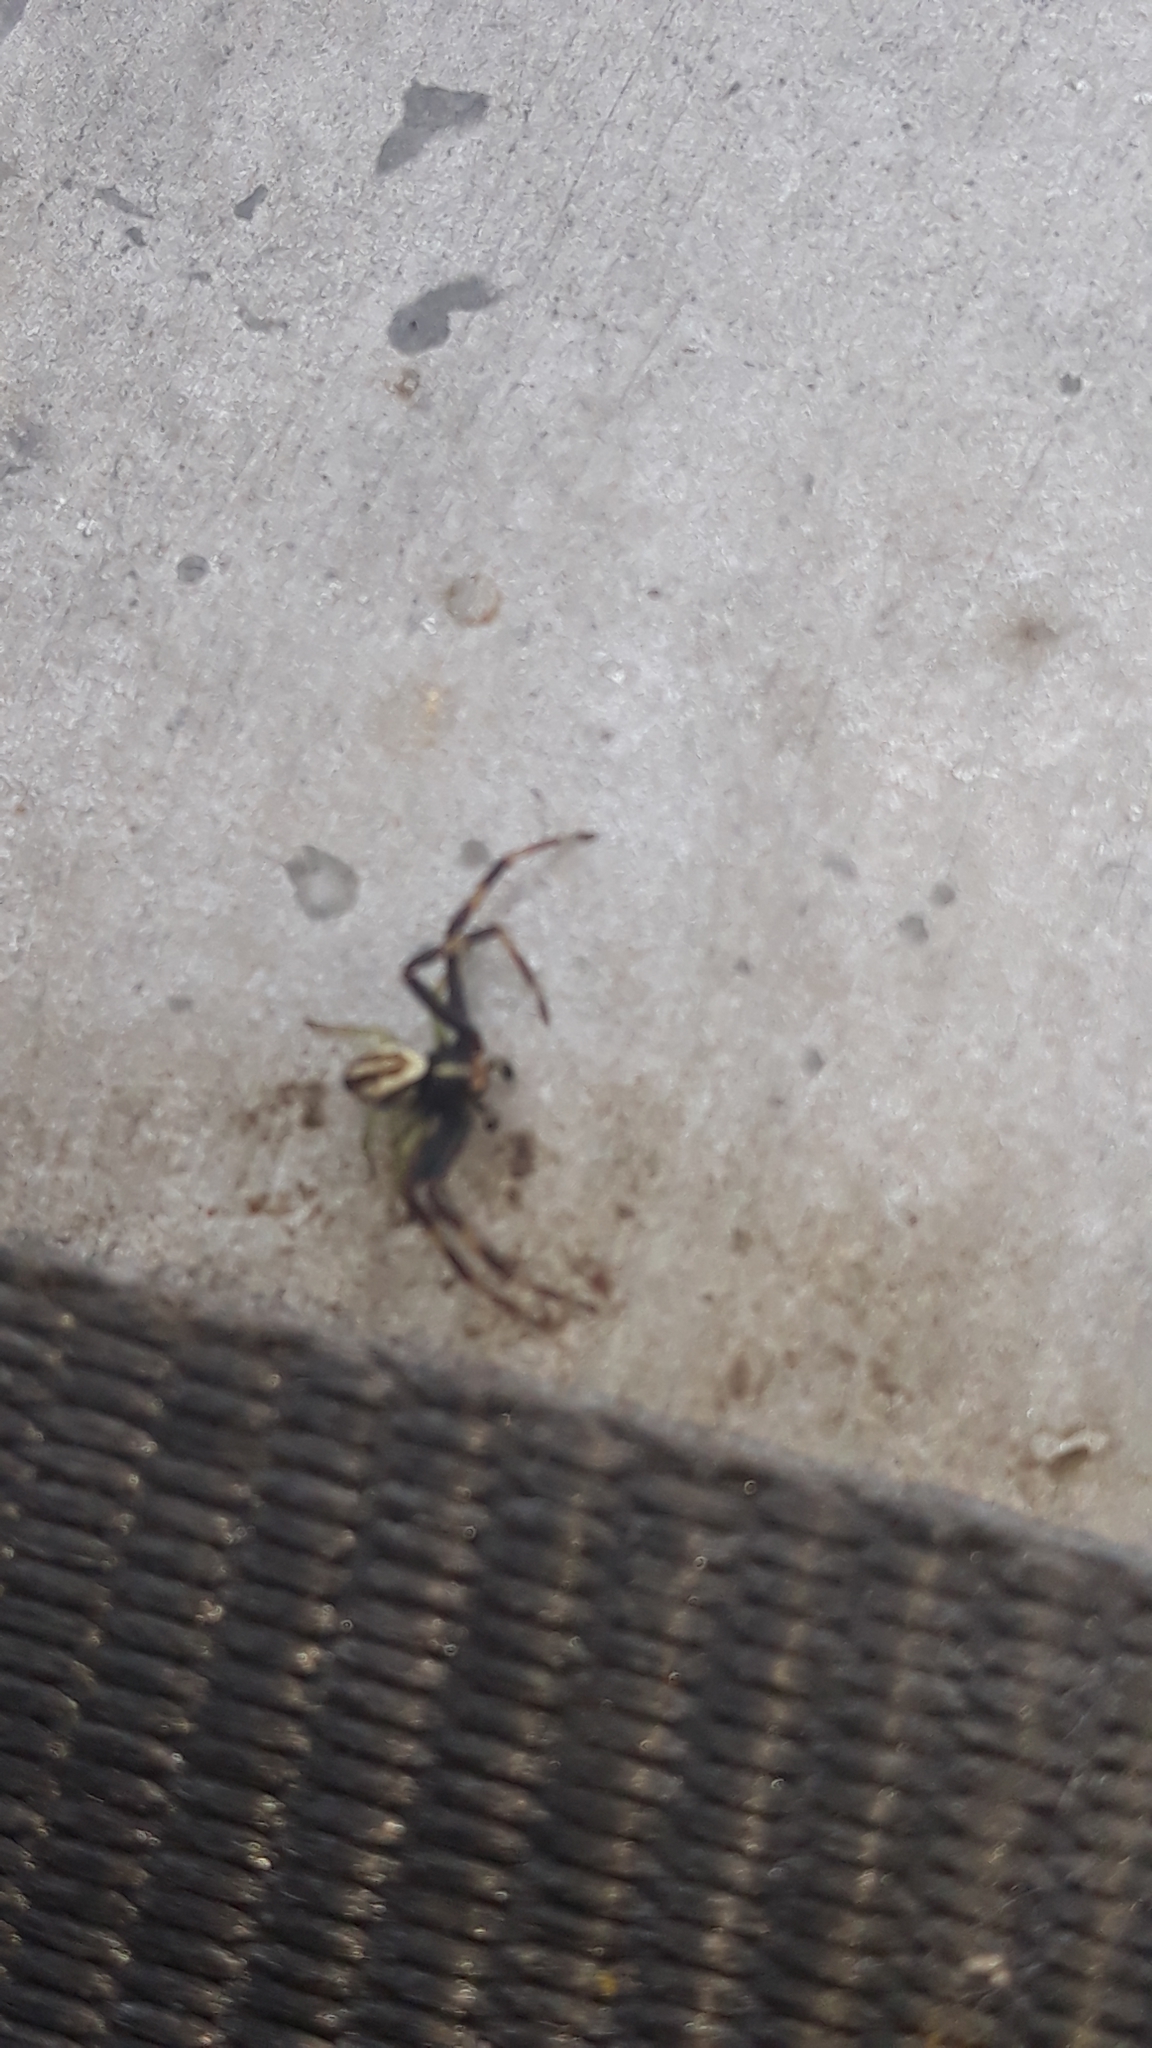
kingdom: Animalia
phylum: Arthropoda
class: Arachnida
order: Araneae
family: Thomisidae
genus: Misumena
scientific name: Misumena vatia
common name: Goldenrod crab spider
